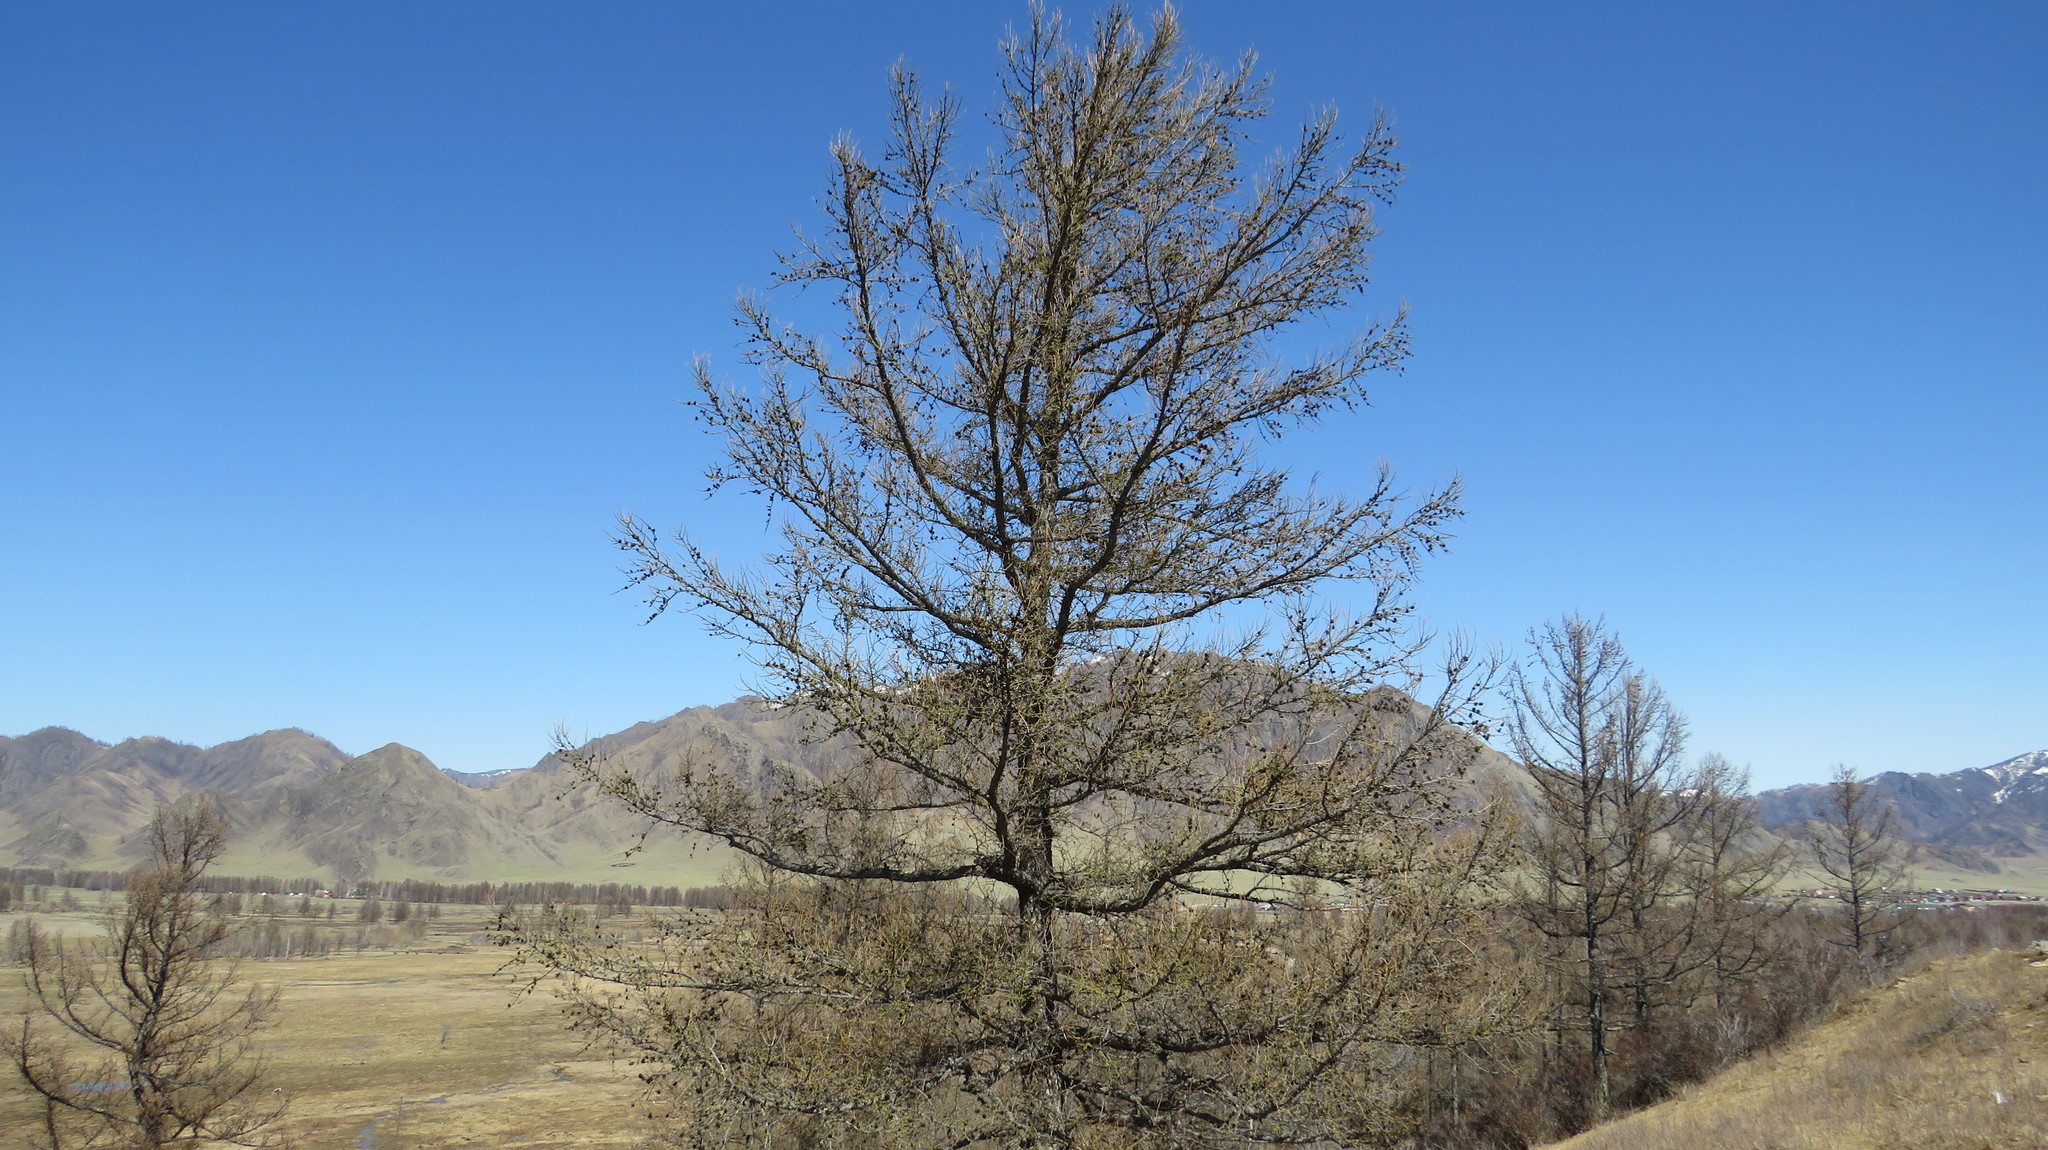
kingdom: Plantae
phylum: Tracheophyta
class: Pinopsida
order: Pinales
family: Pinaceae
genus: Larix
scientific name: Larix sibirica
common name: Siberian larch
